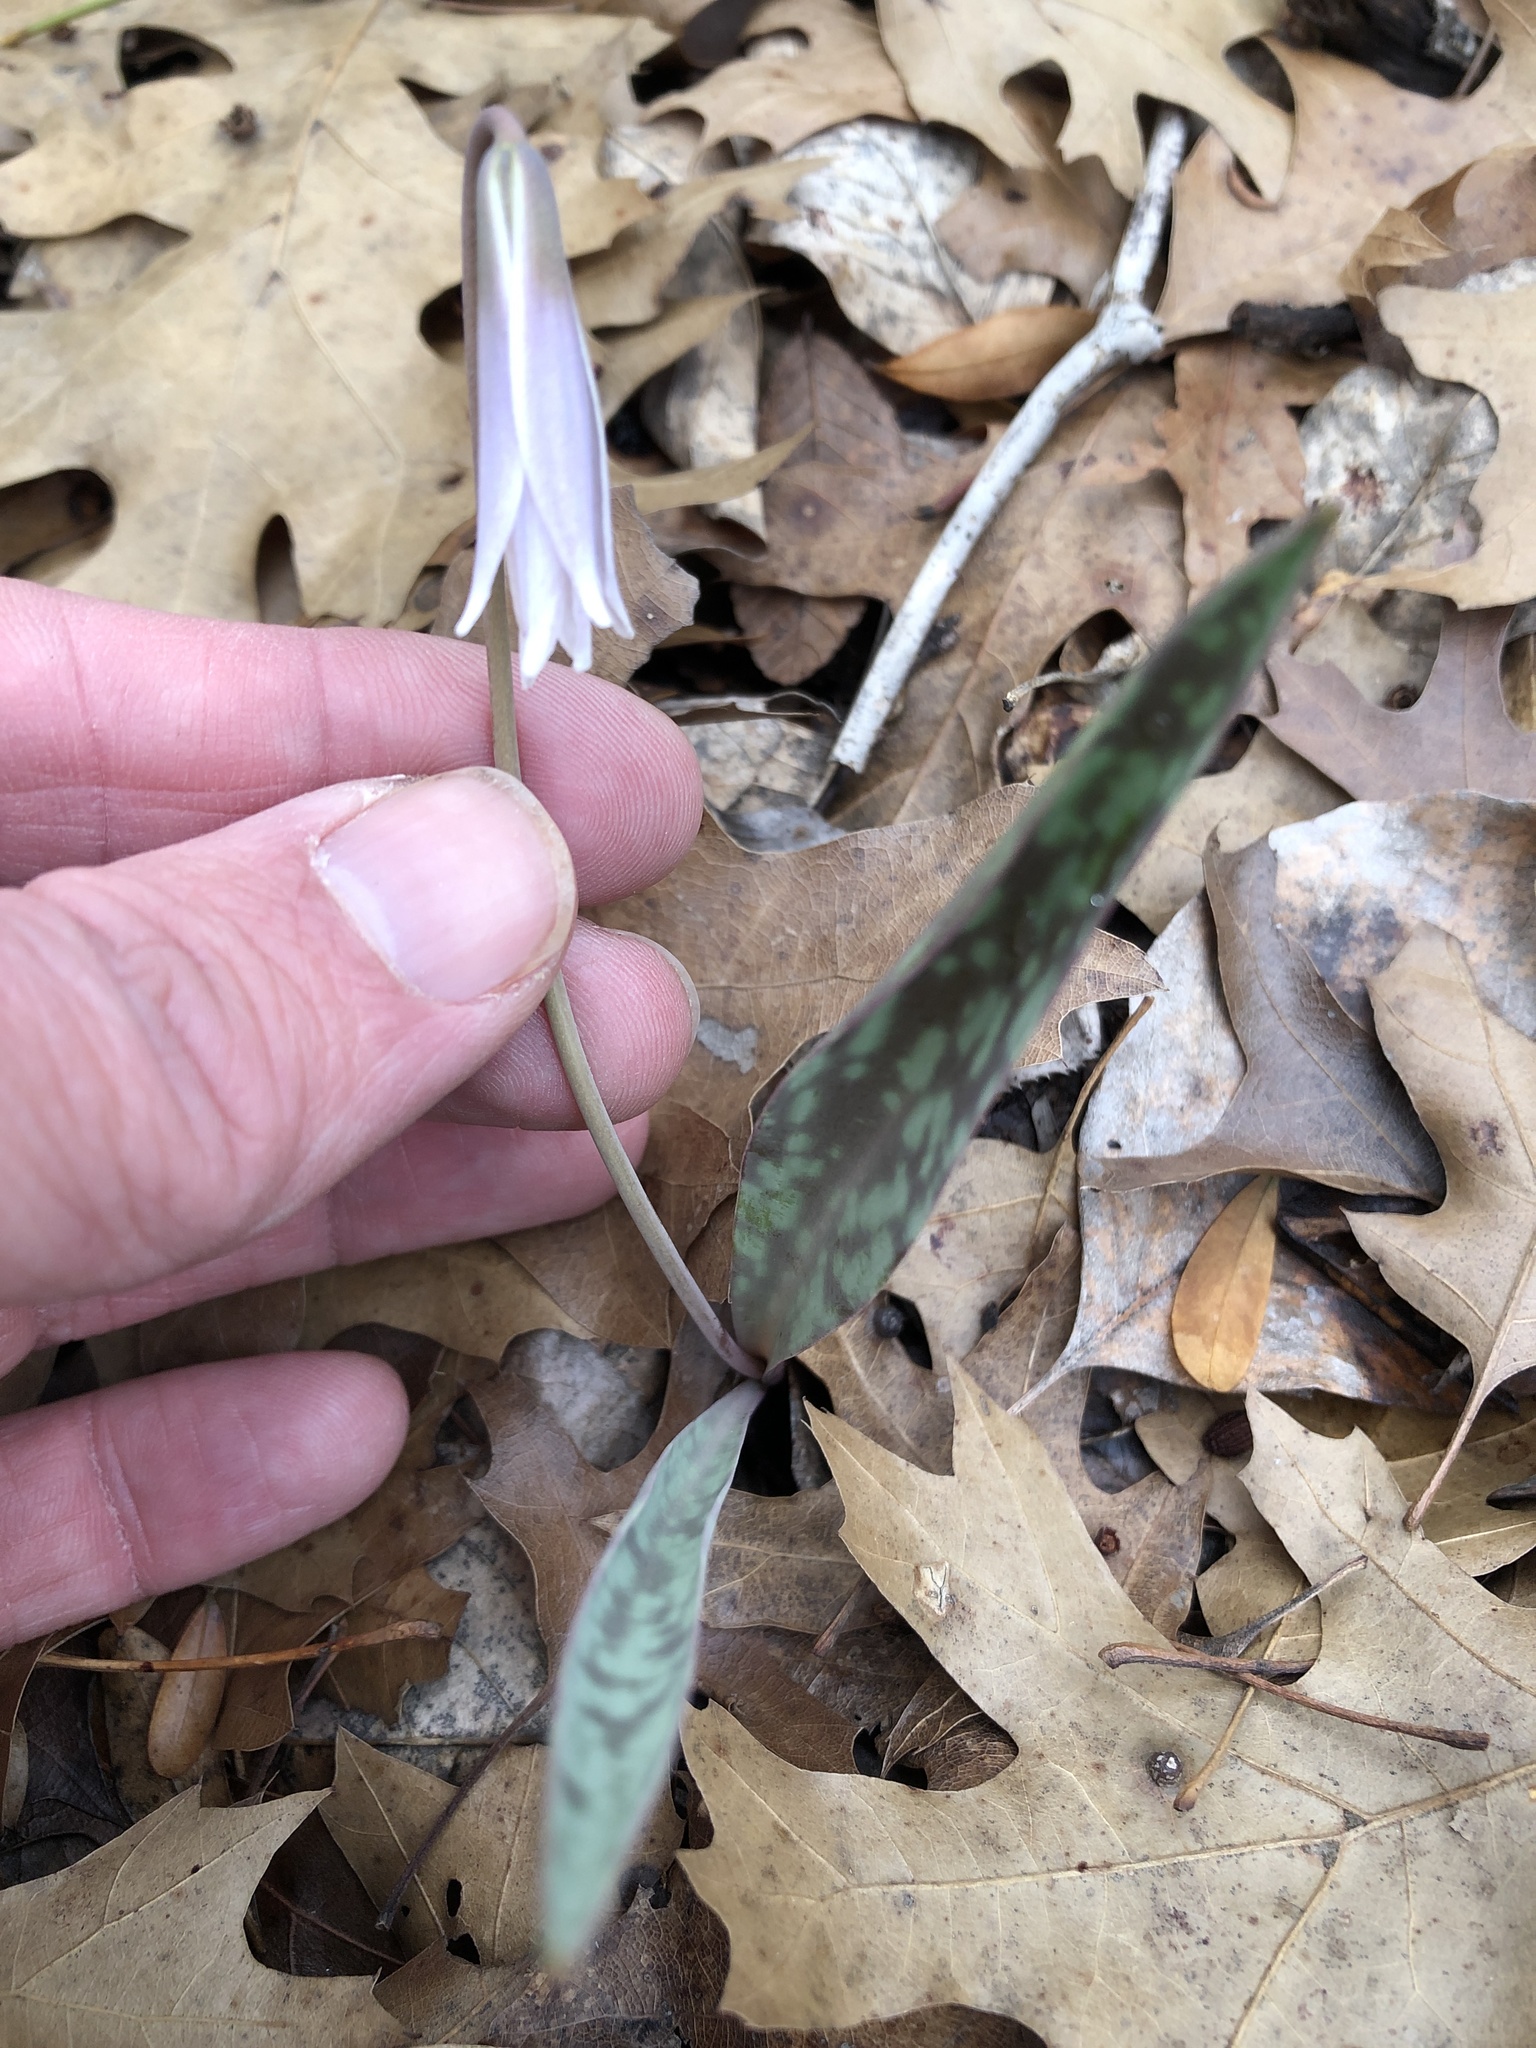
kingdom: Plantae
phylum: Tracheophyta
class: Liliopsida
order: Liliales
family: Liliaceae
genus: Erythronium
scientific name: Erythronium albidum
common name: White trout-lily
